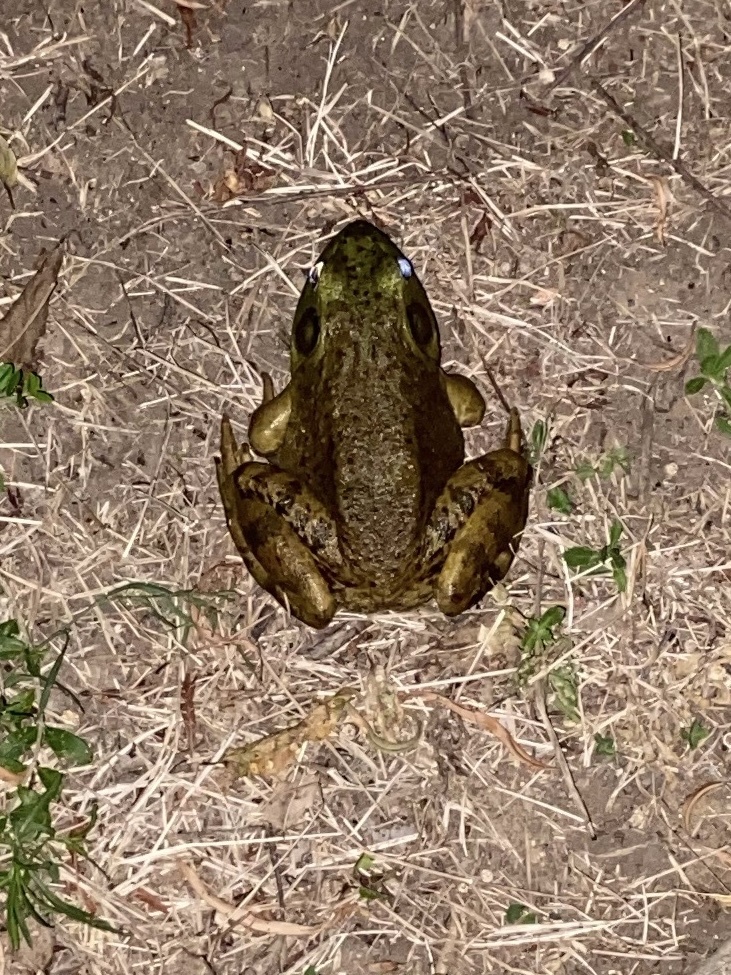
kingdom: Animalia
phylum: Chordata
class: Amphibia
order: Anura
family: Ranidae
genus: Lithobates
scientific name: Lithobates catesbeianus
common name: American bullfrog
